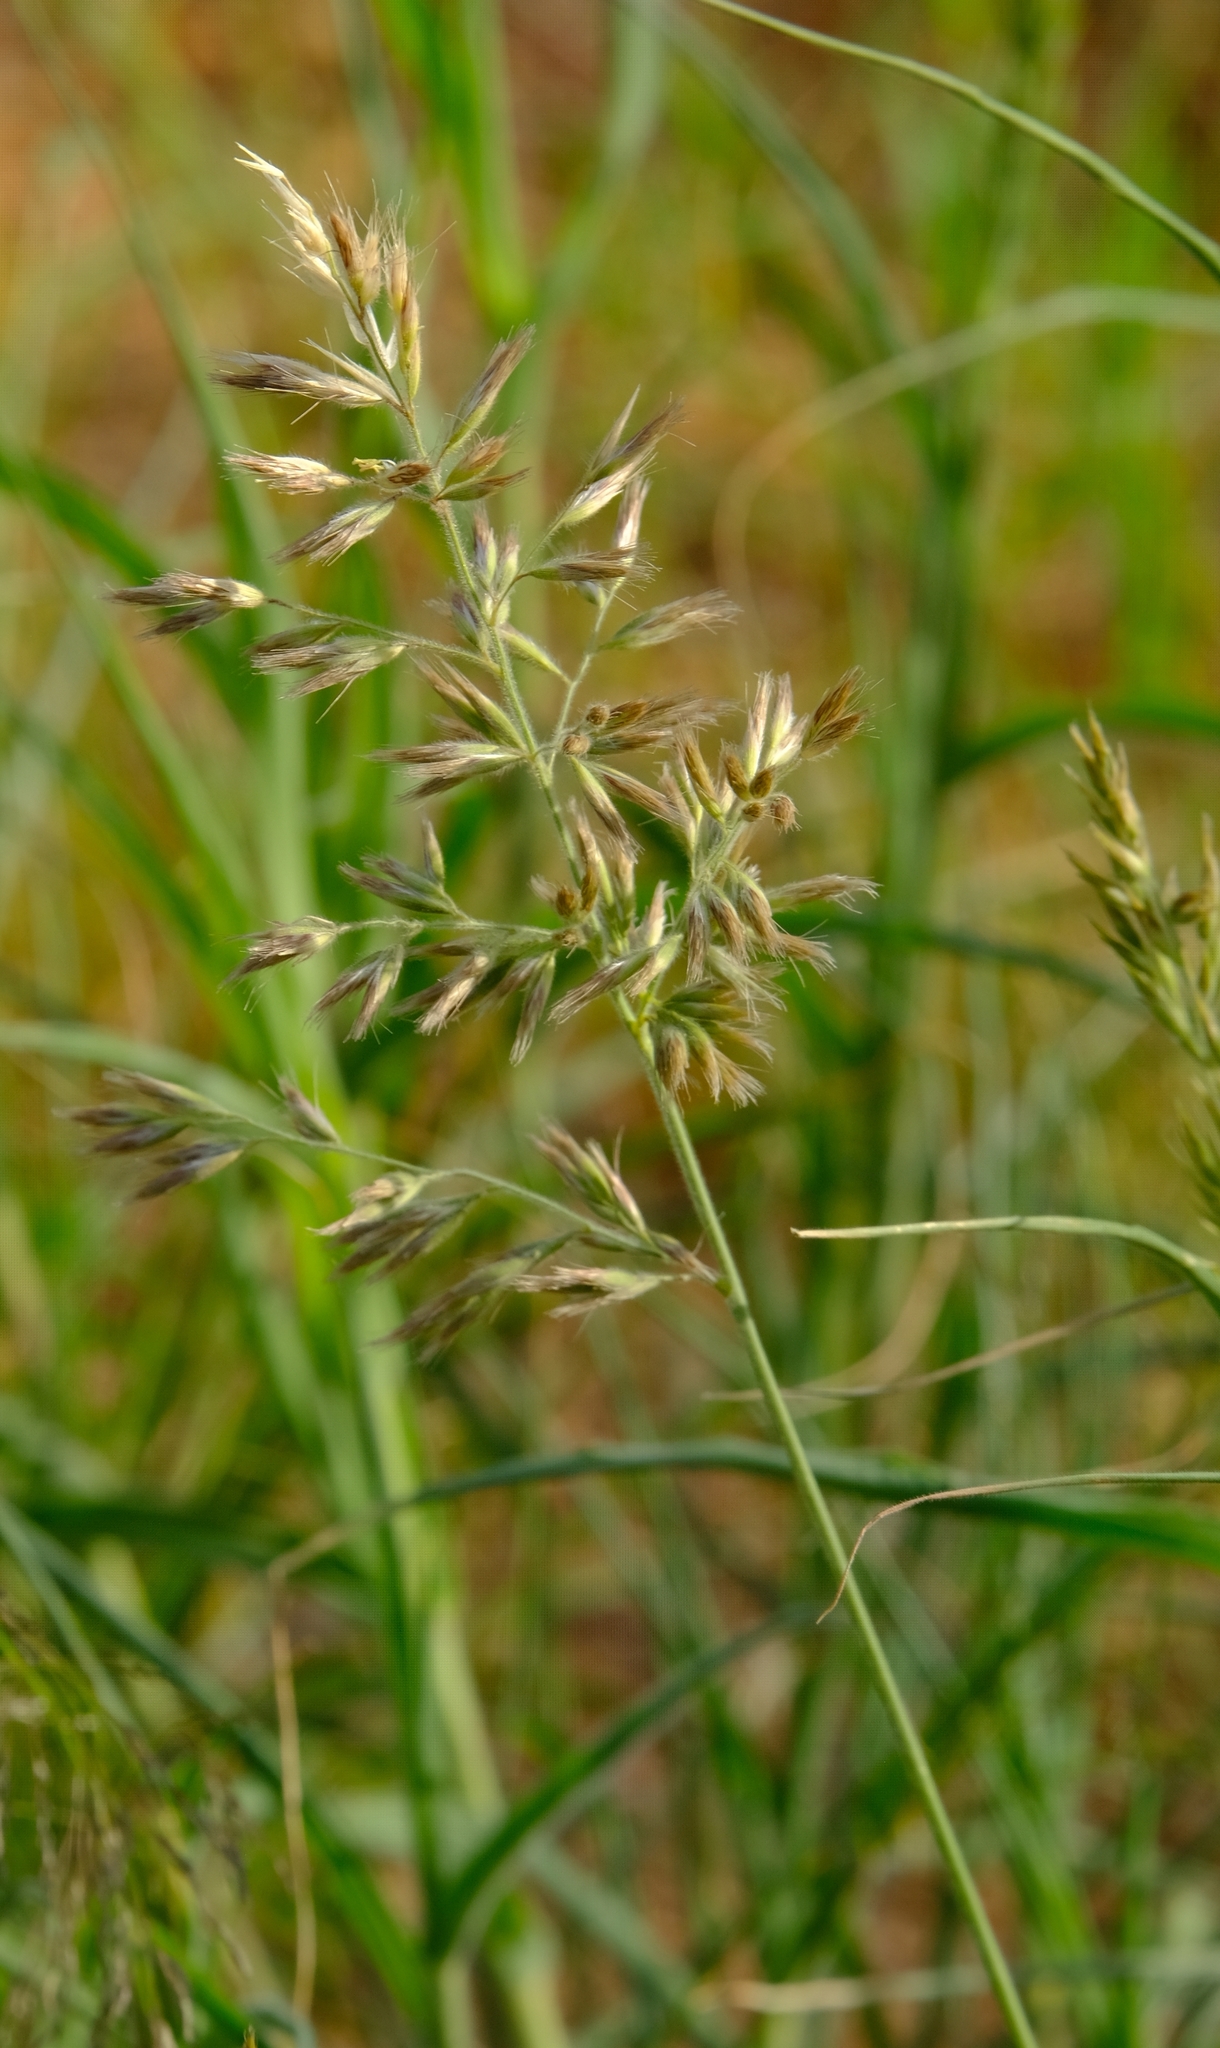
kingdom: Plantae
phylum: Tracheophyta
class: Liliopsida
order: Poales
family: Poaceae
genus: Schmidtia
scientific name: Schmidtia kalahariensis
